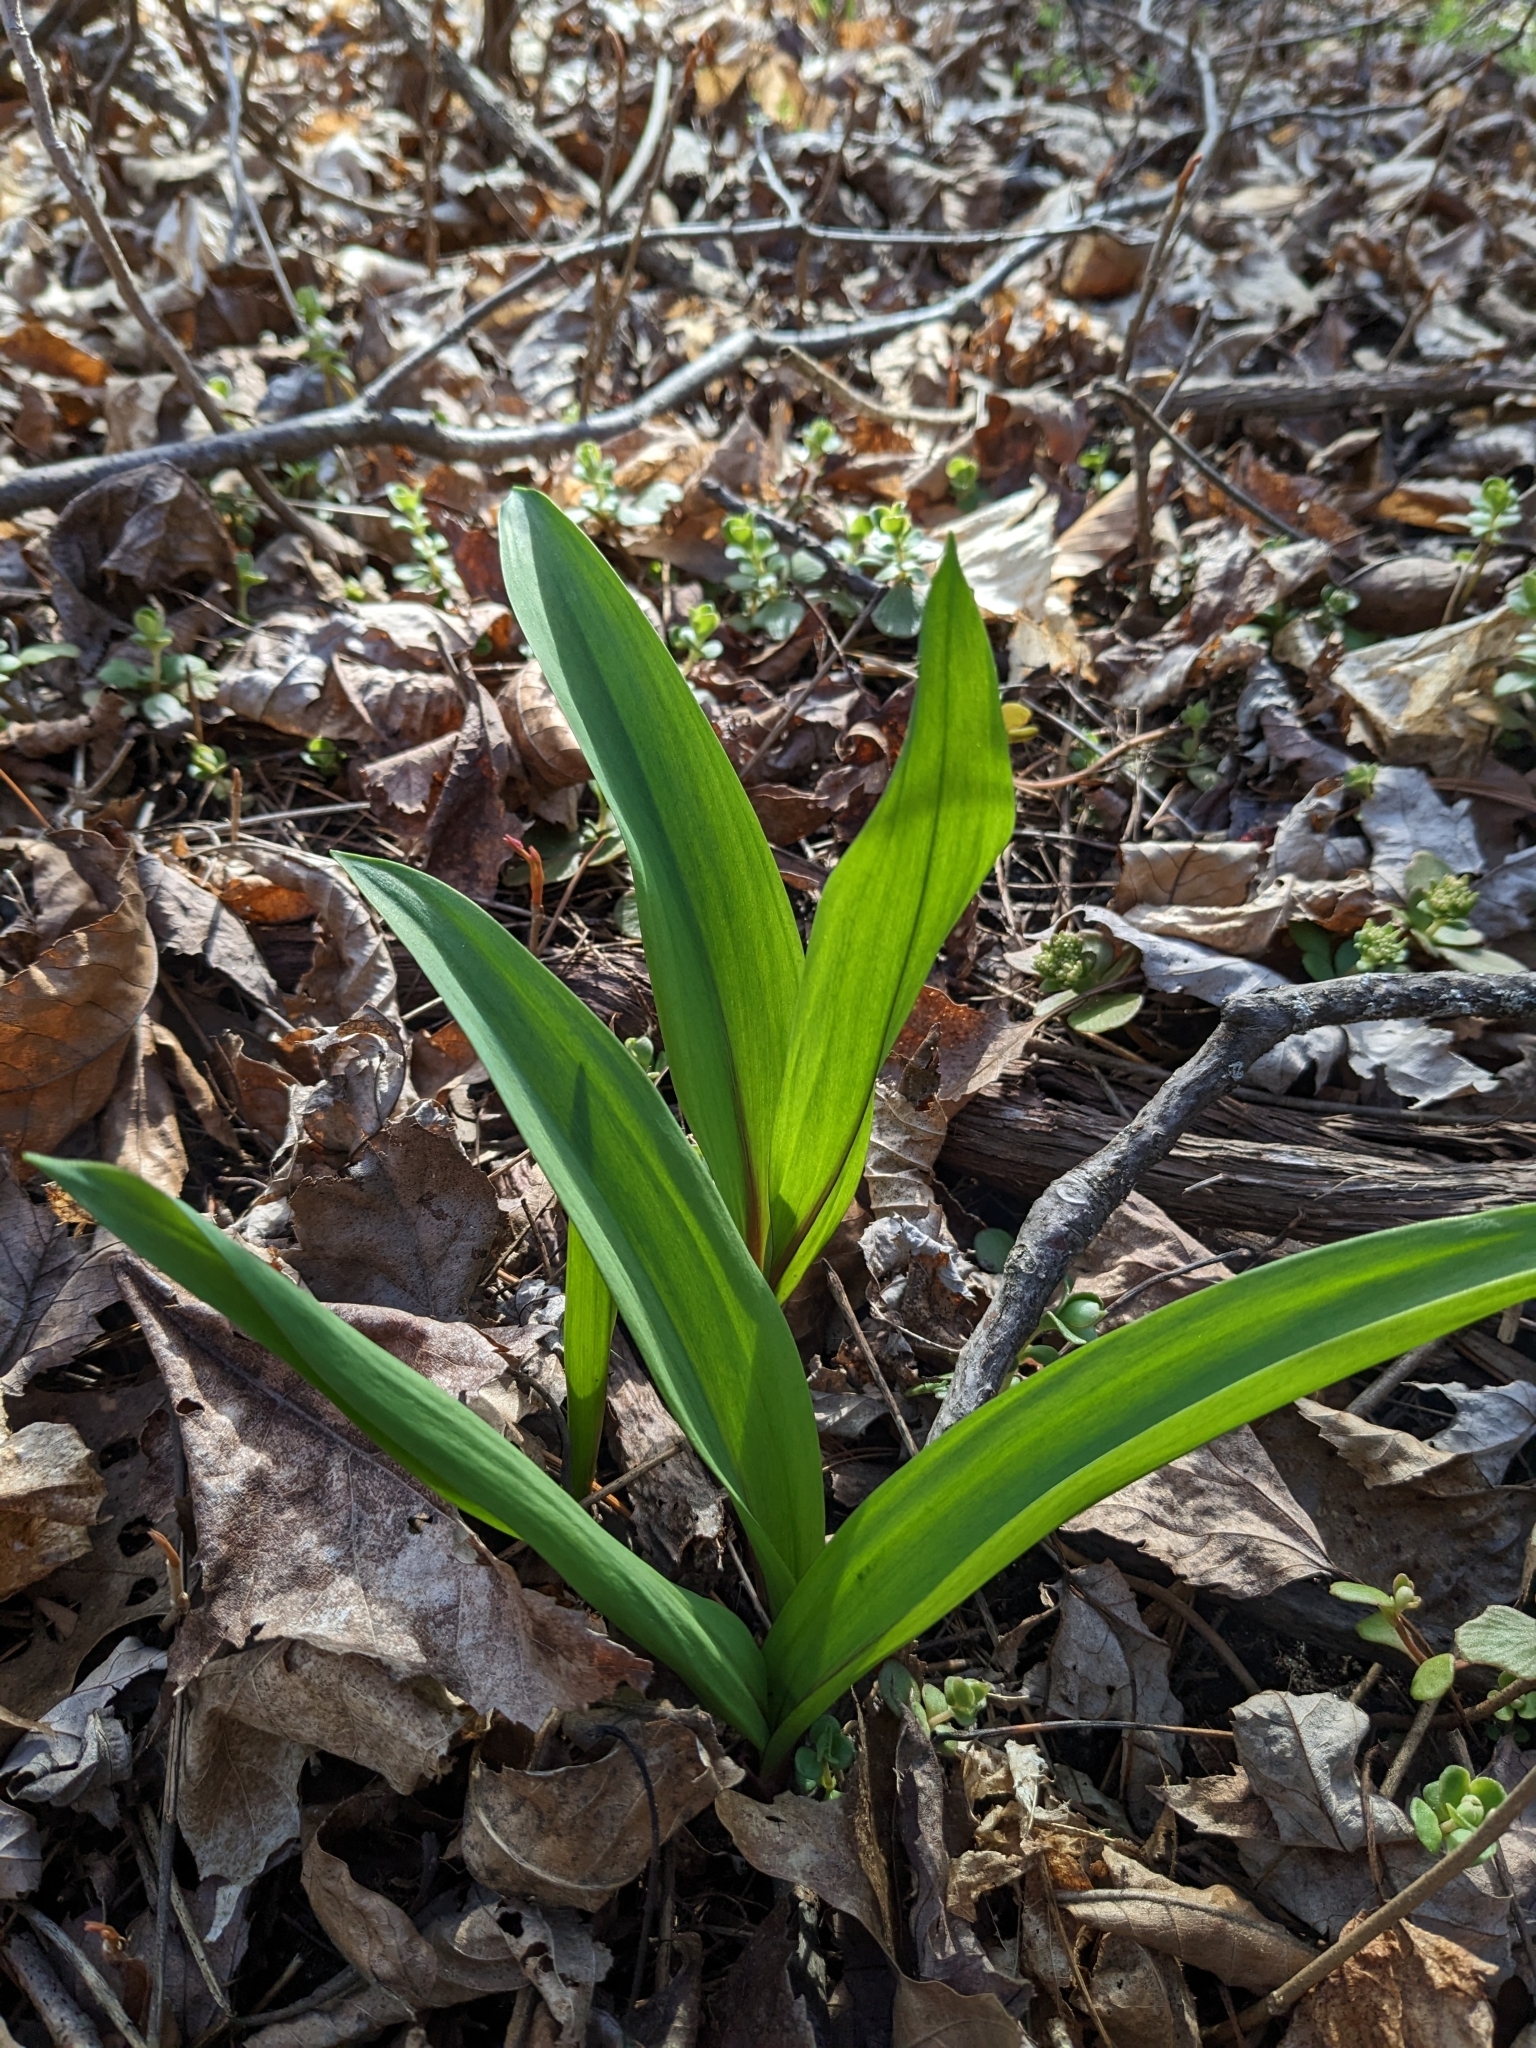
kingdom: Plantae
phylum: Tracheophyta
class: Liliopsida
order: Asparagales
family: Amaryllidaceae
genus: Allium
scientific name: Allium tricoccum
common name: Ramp
